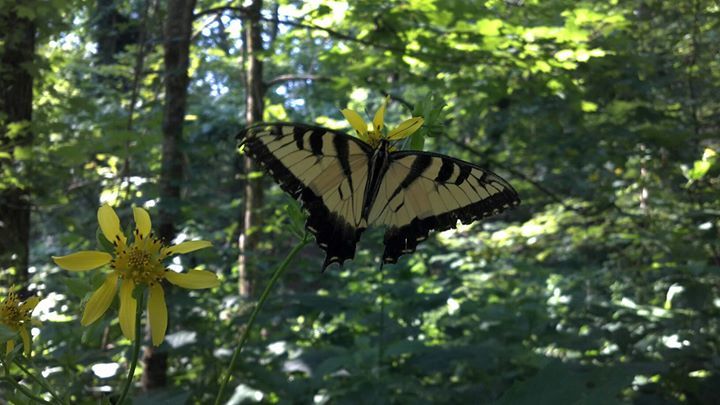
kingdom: Animalia
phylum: Arthropoda
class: Insecta
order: Lepidoptera
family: Papilionidae
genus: Papilio
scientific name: Papilio glaucus
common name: Tiger swallowtail
